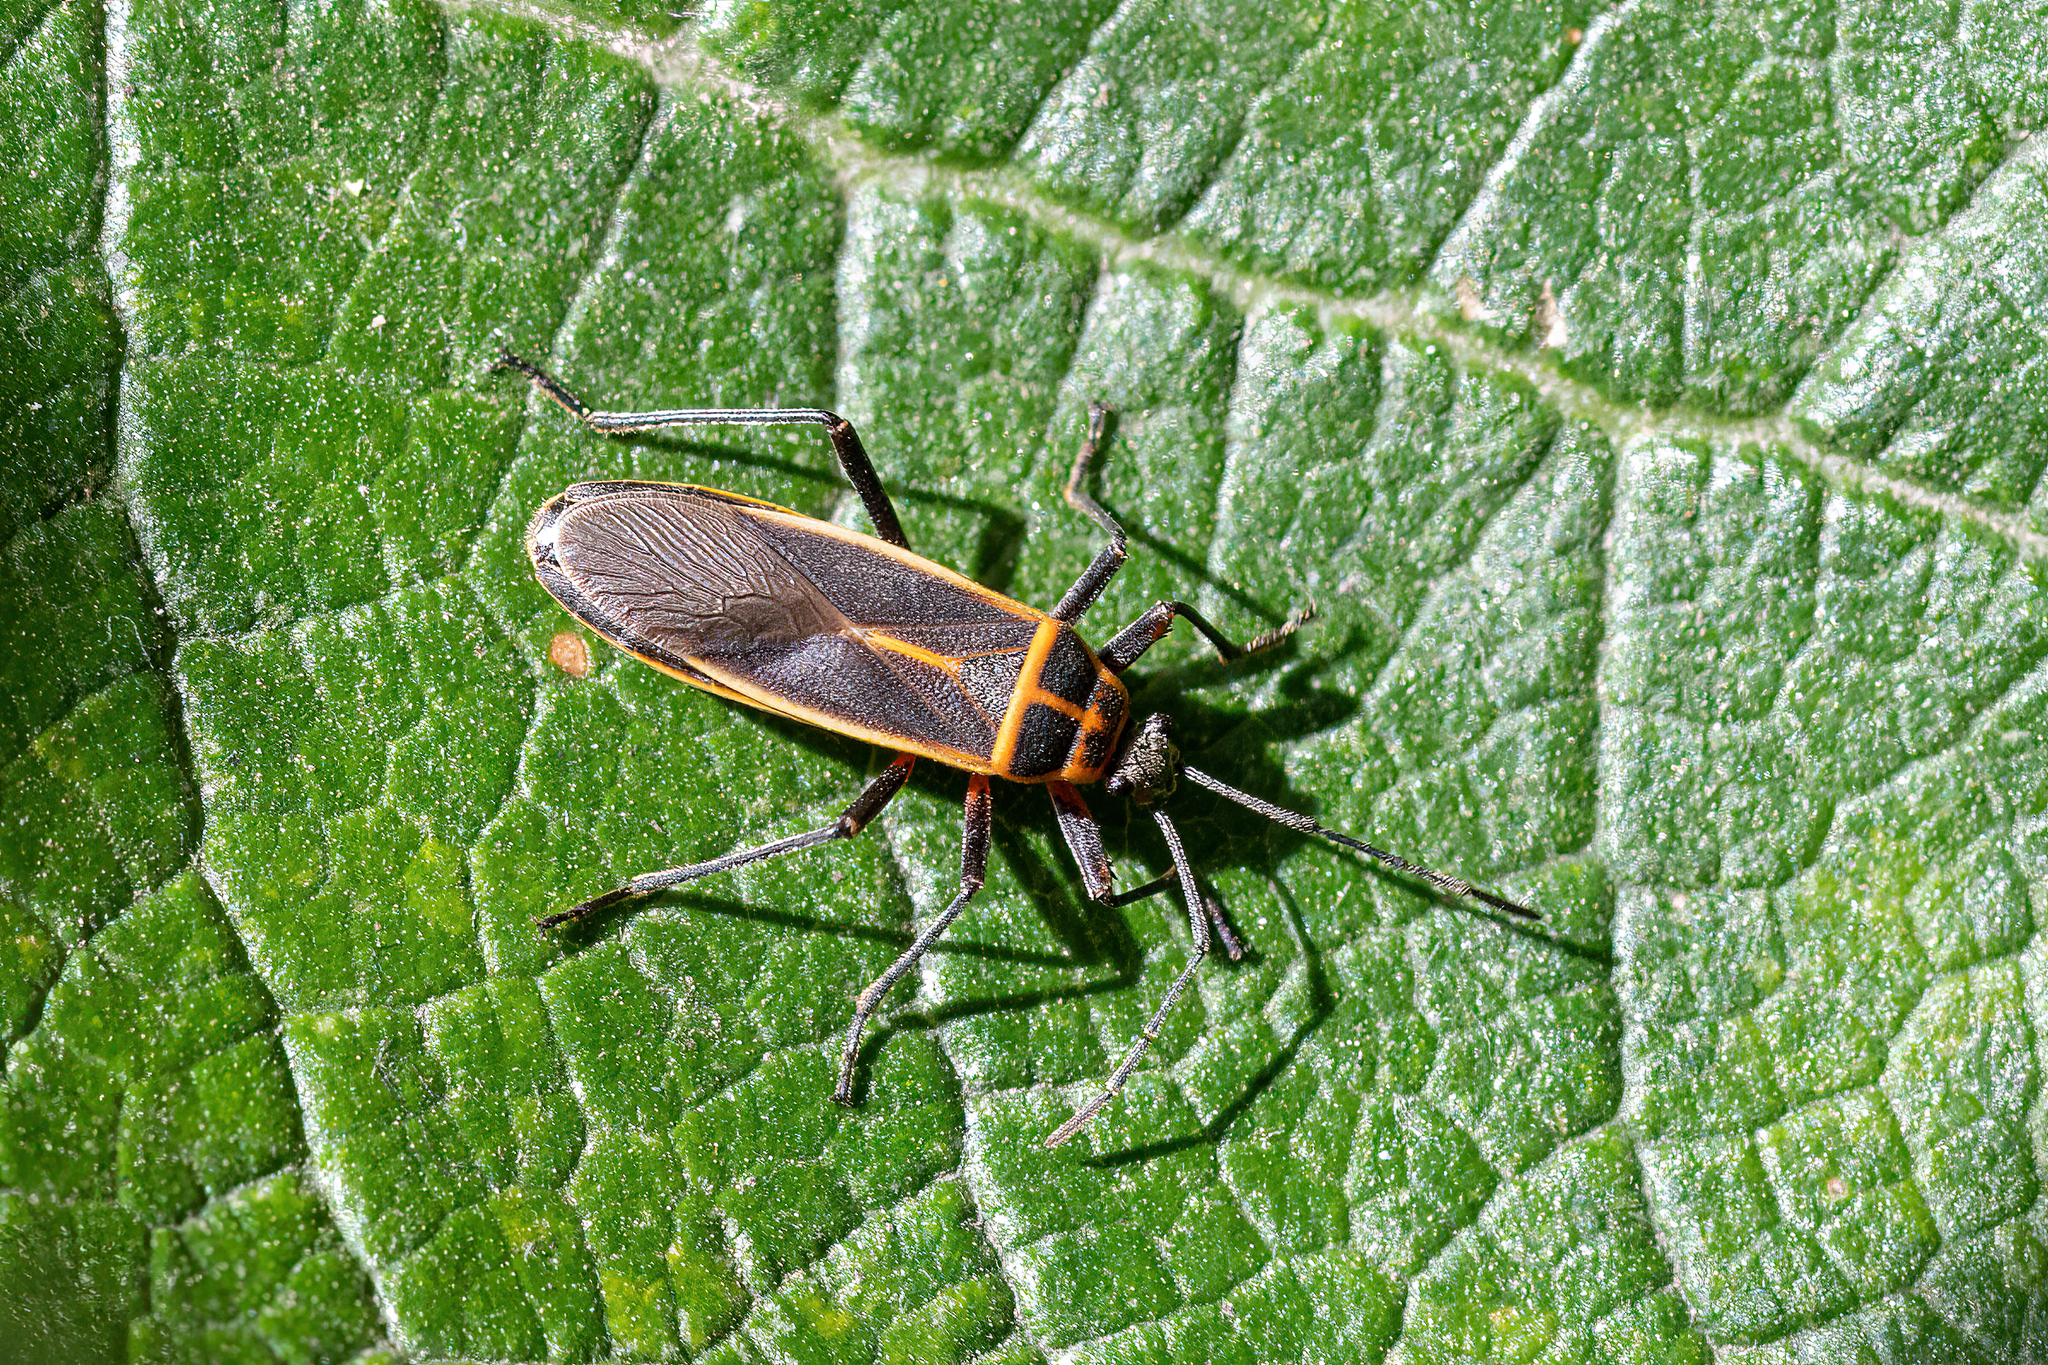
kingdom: Animalia
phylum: Arthropoda
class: Insecta
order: Hemiptera
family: Largidae
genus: Stenomacra
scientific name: Stenomacra marginella
